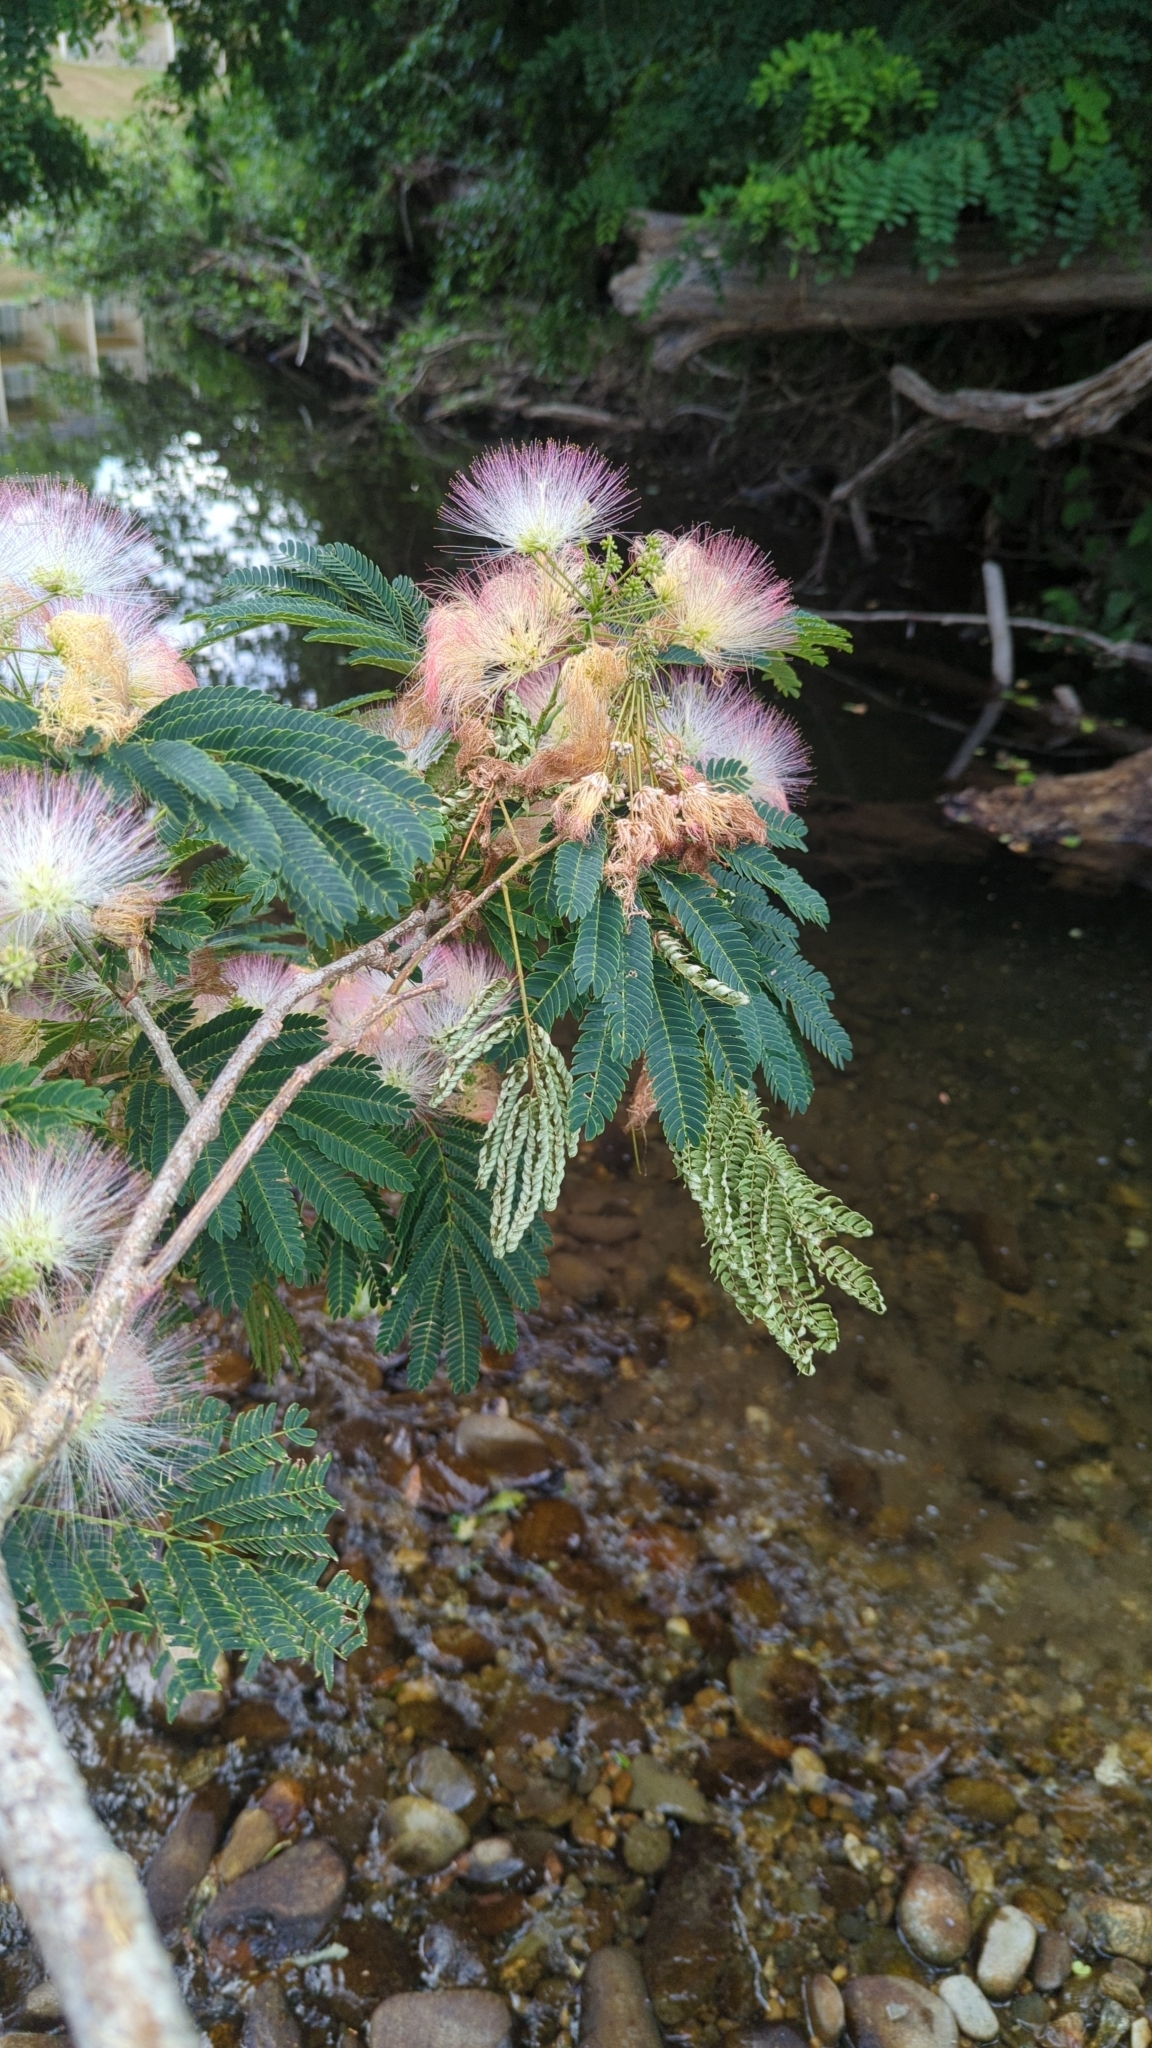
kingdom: Plantae
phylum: Tracheophyta
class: Magnoliopsida
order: Fabales
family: Fabaceae
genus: Albizia
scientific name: Albizia julibrissin
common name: Silktree
